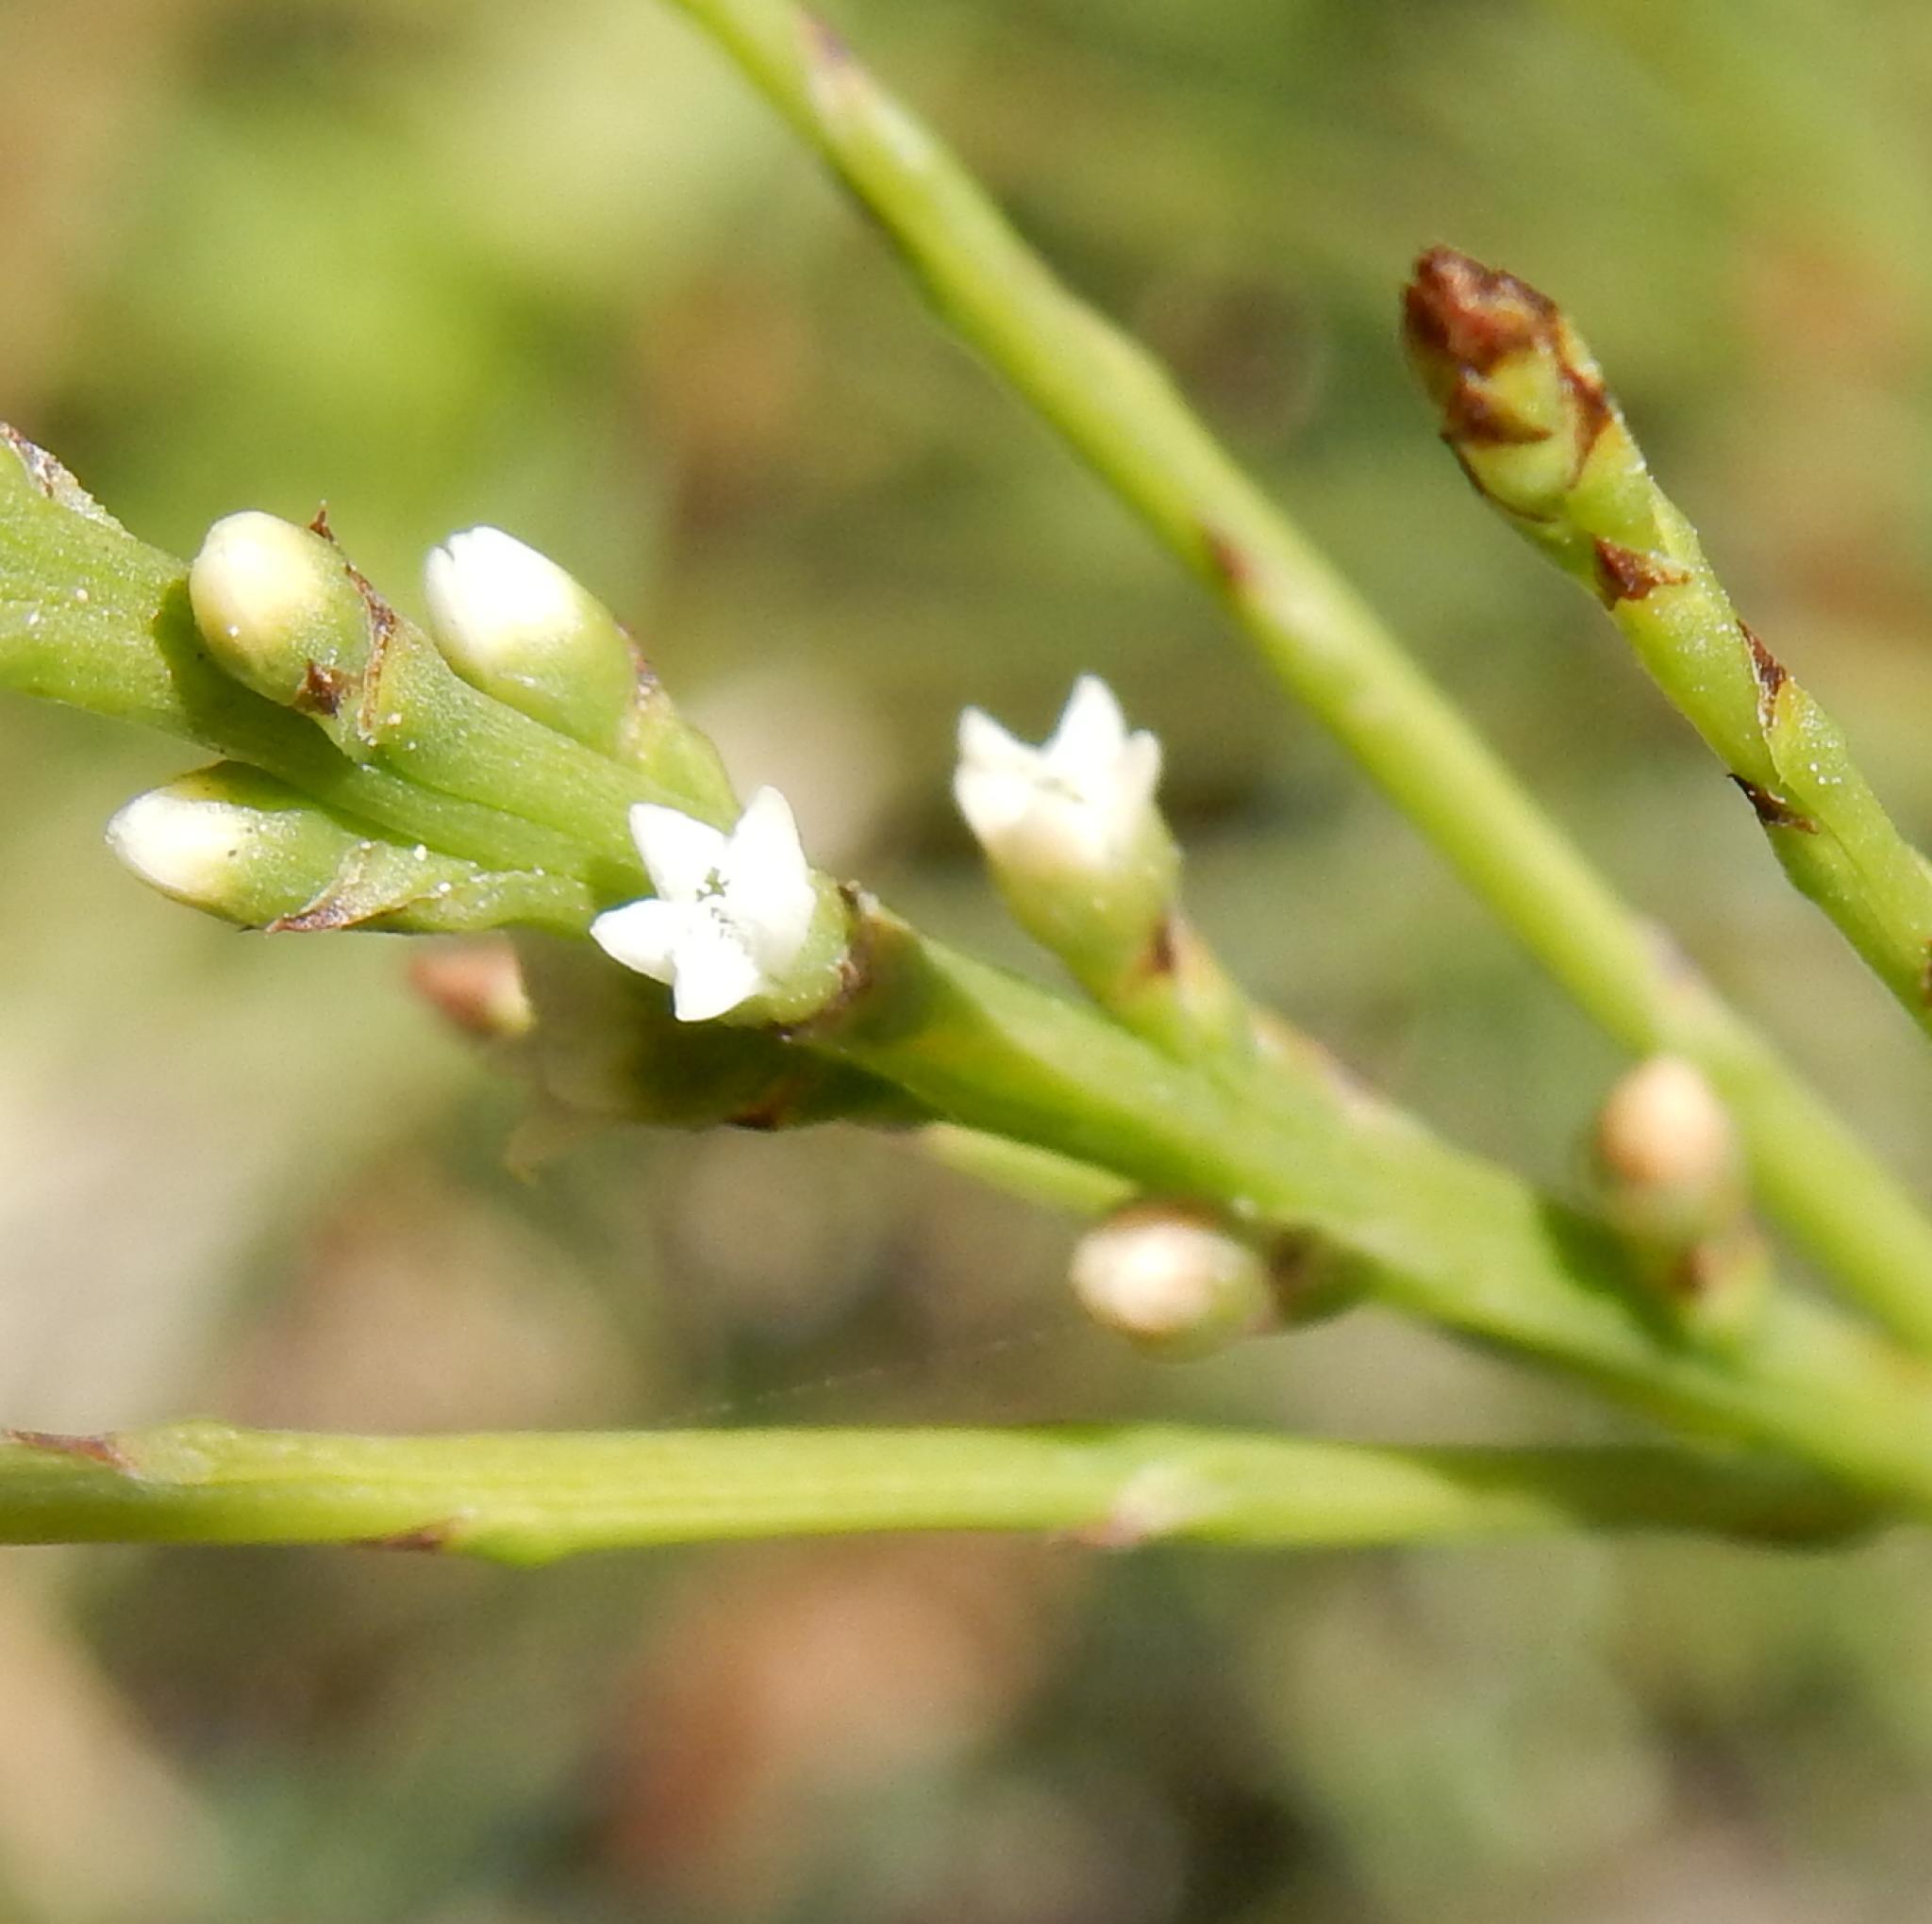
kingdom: Plantae
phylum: Tracheophyta
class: Magnoliopsida
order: Santalales
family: Thesiaceae
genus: Thesium
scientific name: Thesium junceum
